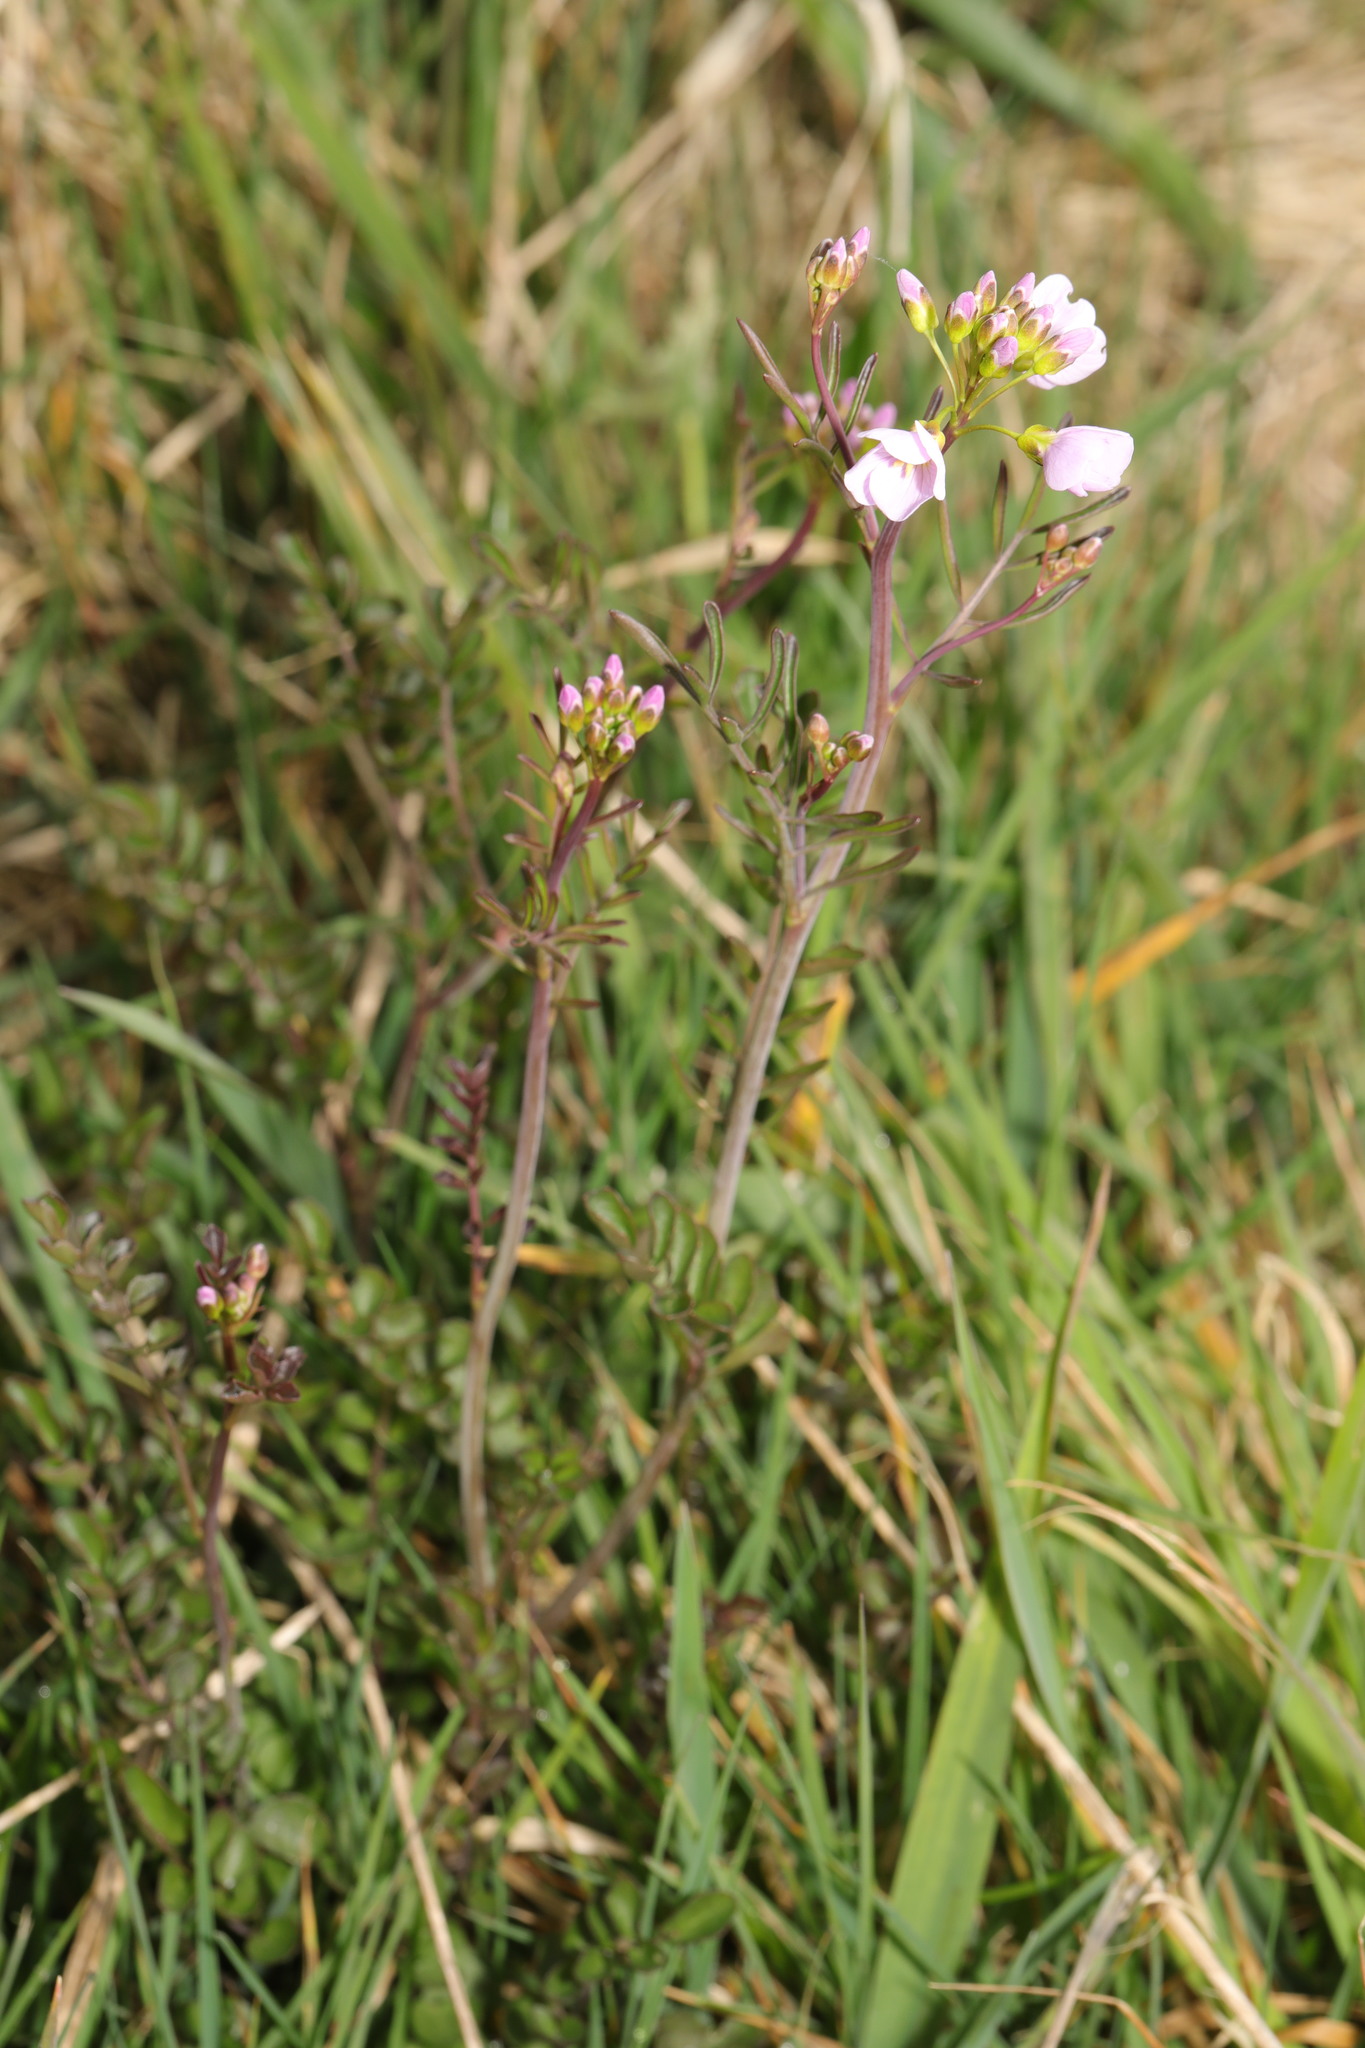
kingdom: Plantae
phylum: Tracheophyta
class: Magnoliopsida
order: Brassicales
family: Brassicaceae
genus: Cardamine
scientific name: Cardamine pratensis
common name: Cuckoo flower
